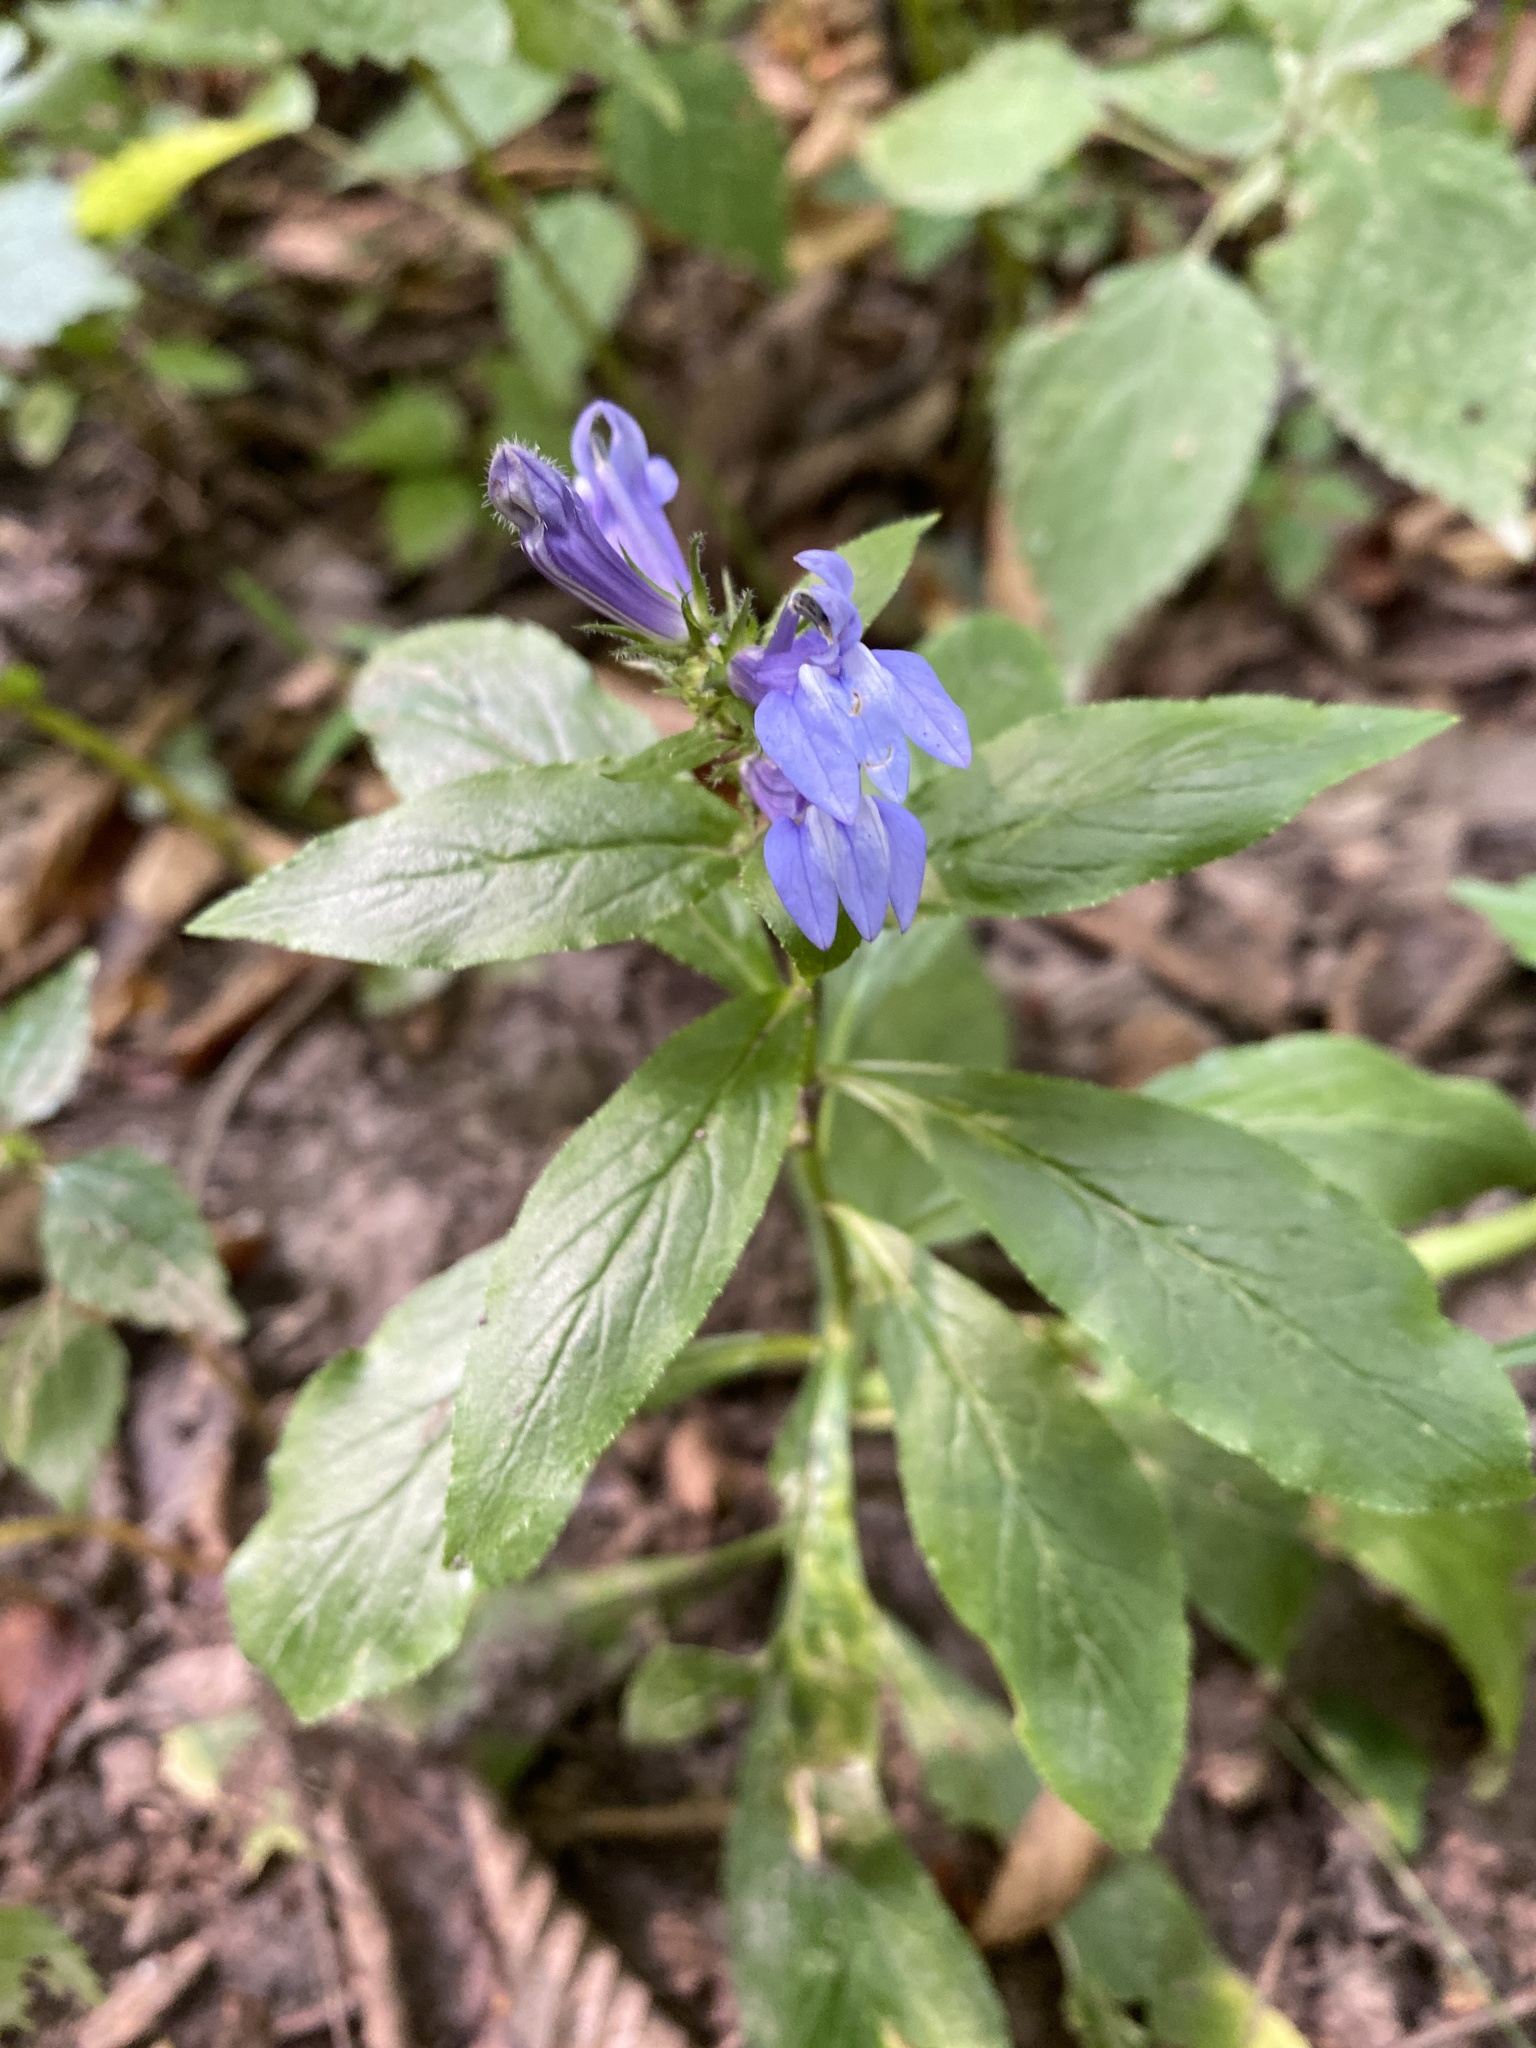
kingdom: Plantae
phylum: Tracheophyta
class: Magnoliopsida
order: Asterales
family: Campanulaceae
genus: Lobelia
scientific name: Lobelia siphilitica
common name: Great lobelia
